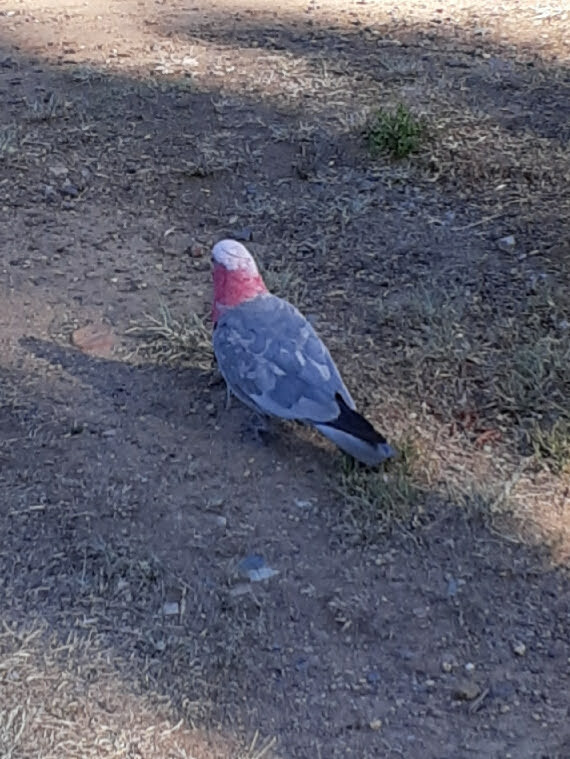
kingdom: Animalia
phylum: Chordata
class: Aves
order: Psittaciformes
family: Psittacidae
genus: Eolophus
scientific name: Eolophus roseicapilla
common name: Galah
